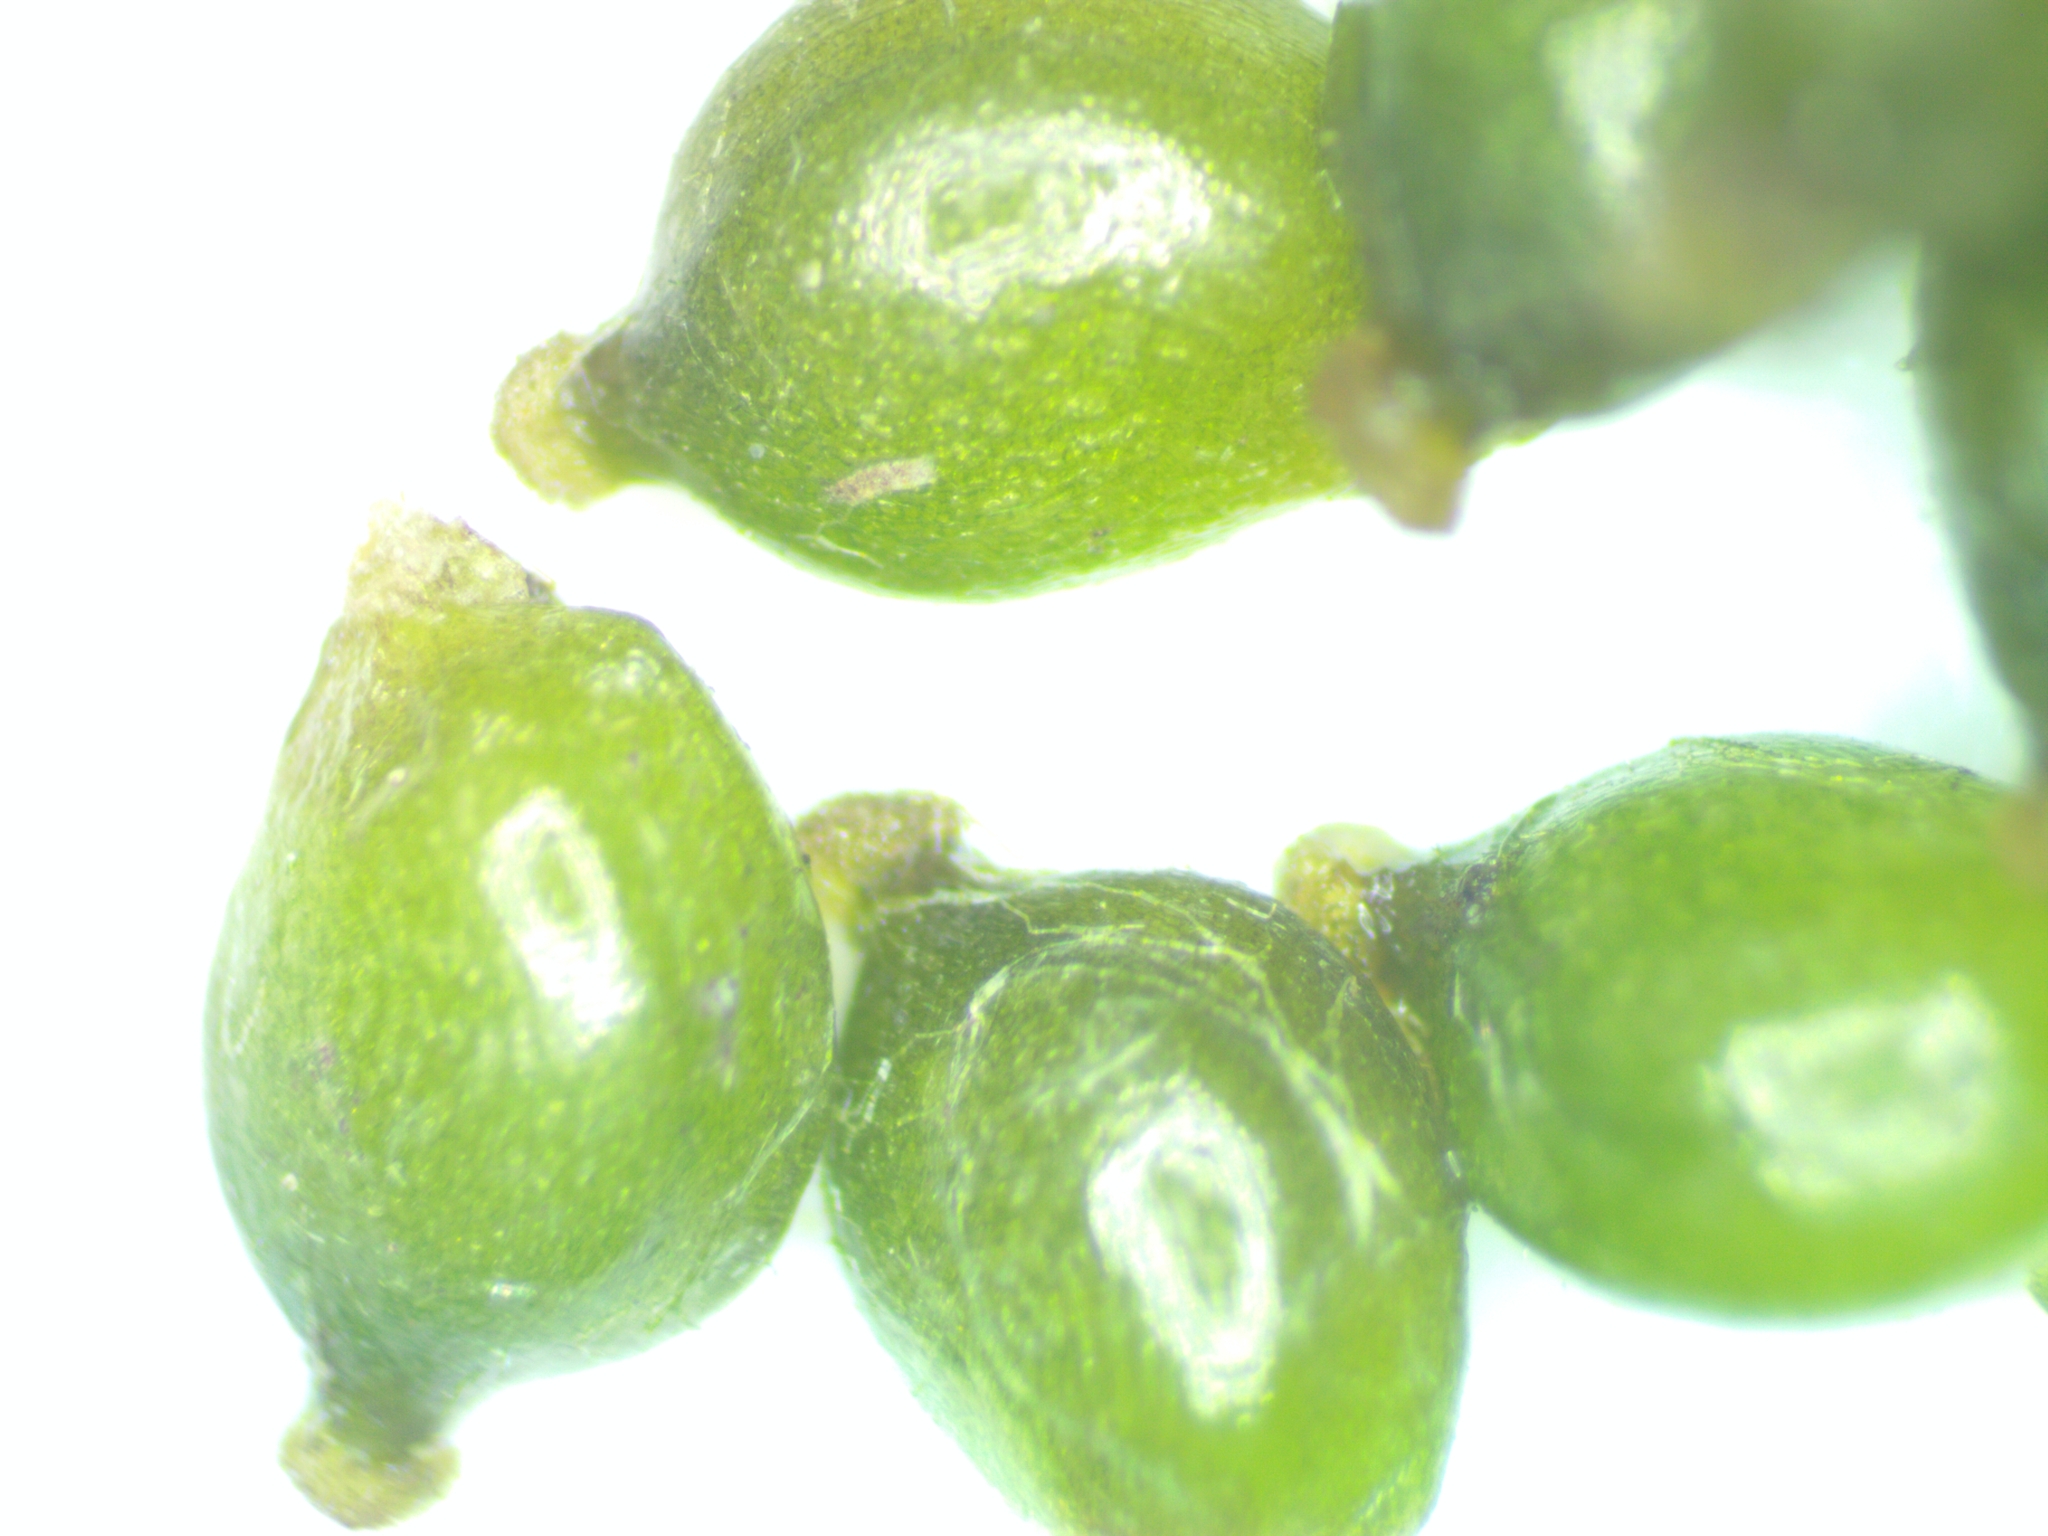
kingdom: Plantae
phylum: Tracheophyta
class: Liliopsida
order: Alismatales
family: Potamogetonaceae
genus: Potamogeton
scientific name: Potamogeton pusillus
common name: Lesser pondweed
